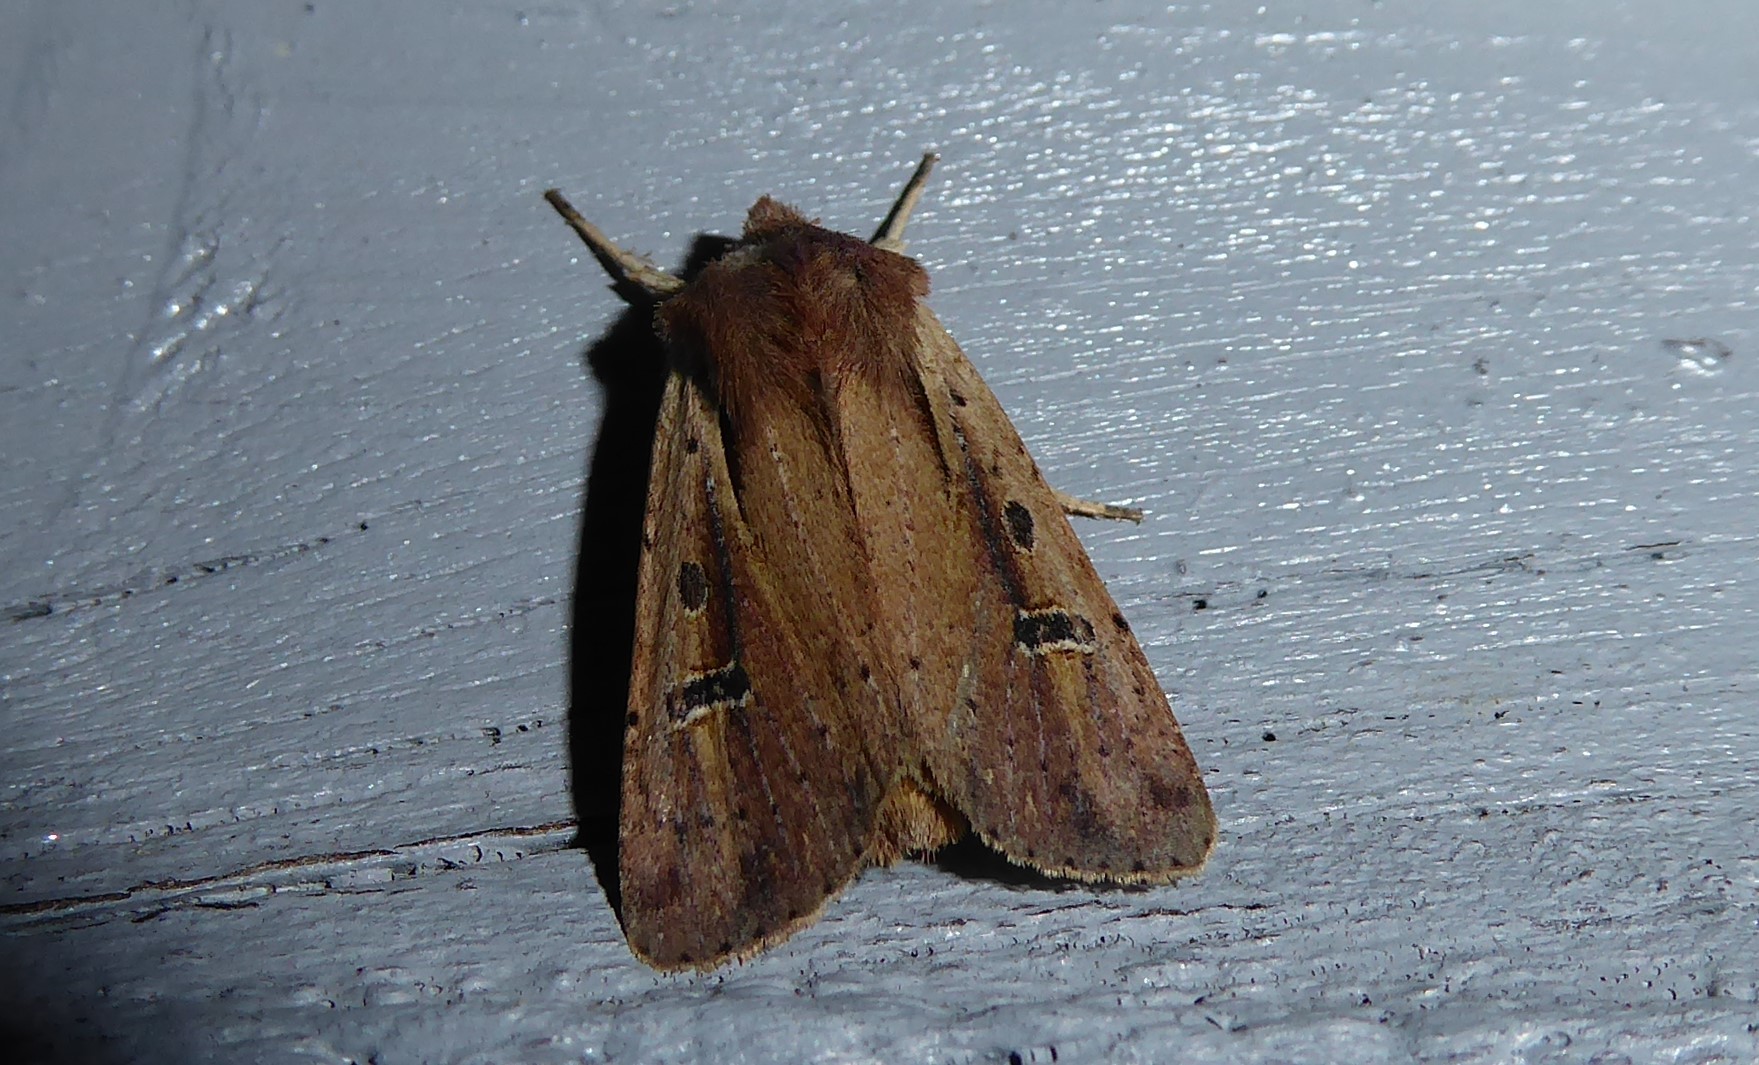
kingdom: Animalia
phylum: Arthropoda
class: Insecta
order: Lepidoptera
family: Noctuidae
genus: Ichneutica
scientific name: Ichneutica atristriga
